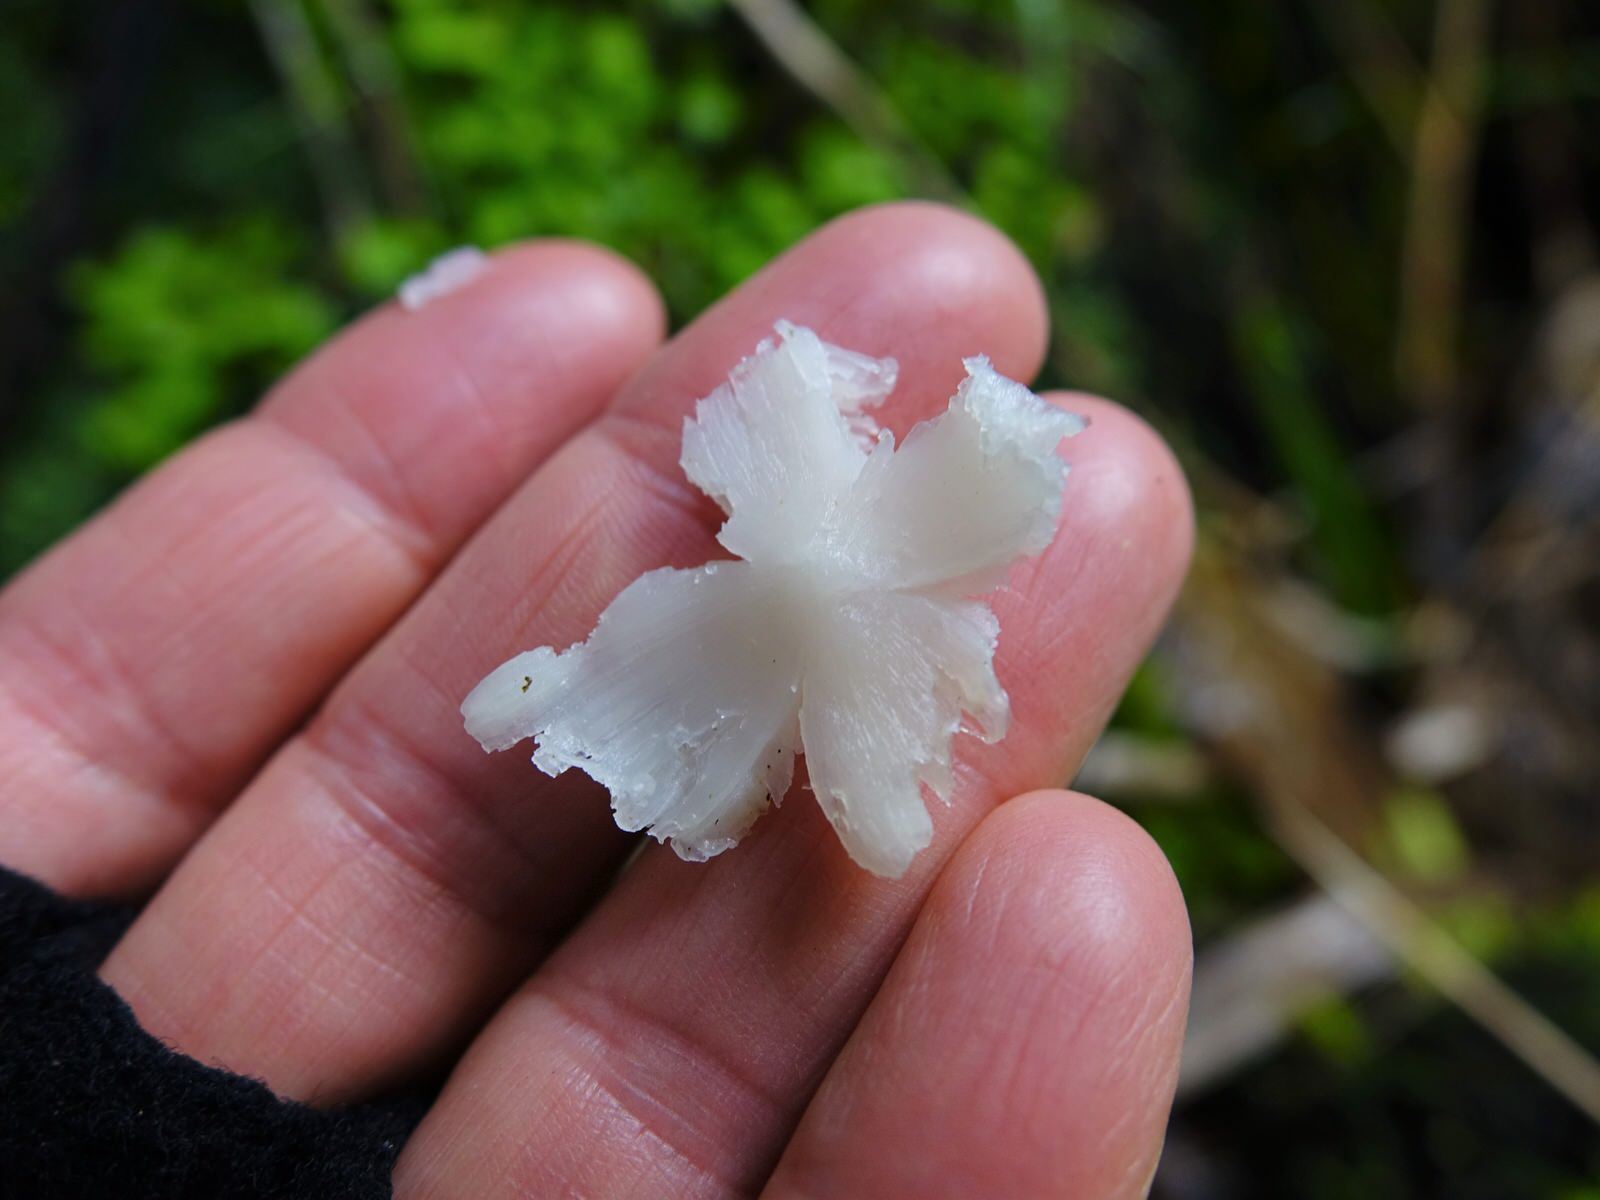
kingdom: Fungi
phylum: Basidiomycota
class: Agaricomycetes
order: Agaricales
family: Hygrophoraceae
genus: Humidicutis
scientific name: Humidicutis mavis
